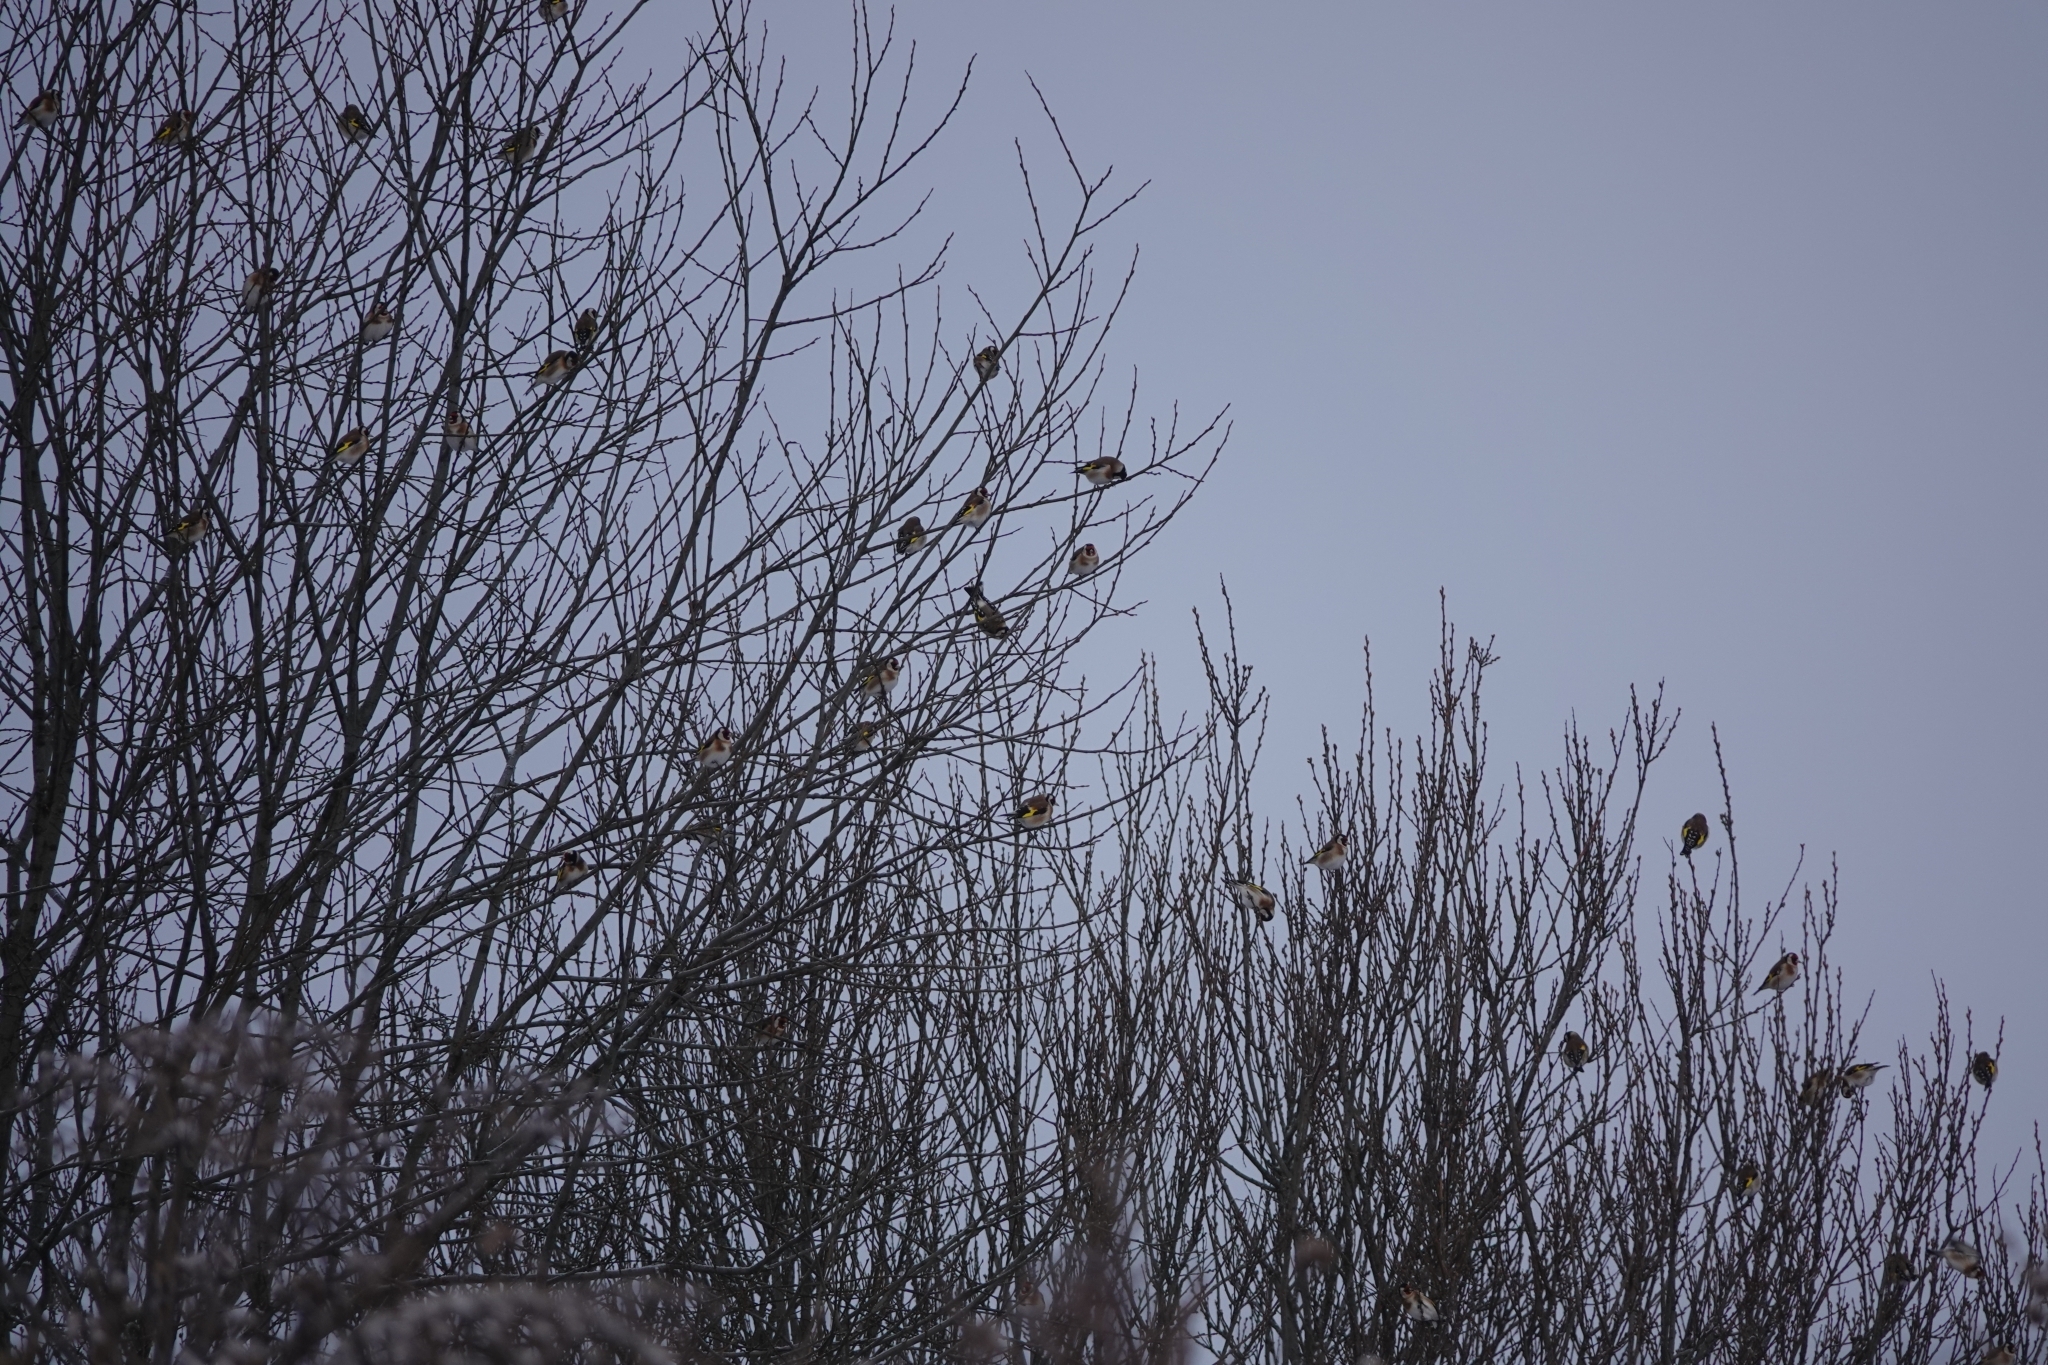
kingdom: Animalia
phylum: Chordata
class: Aves
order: Passeriformes
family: Fringillidae
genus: Carduelis
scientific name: Carduelis carduelis
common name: European goldfinch
